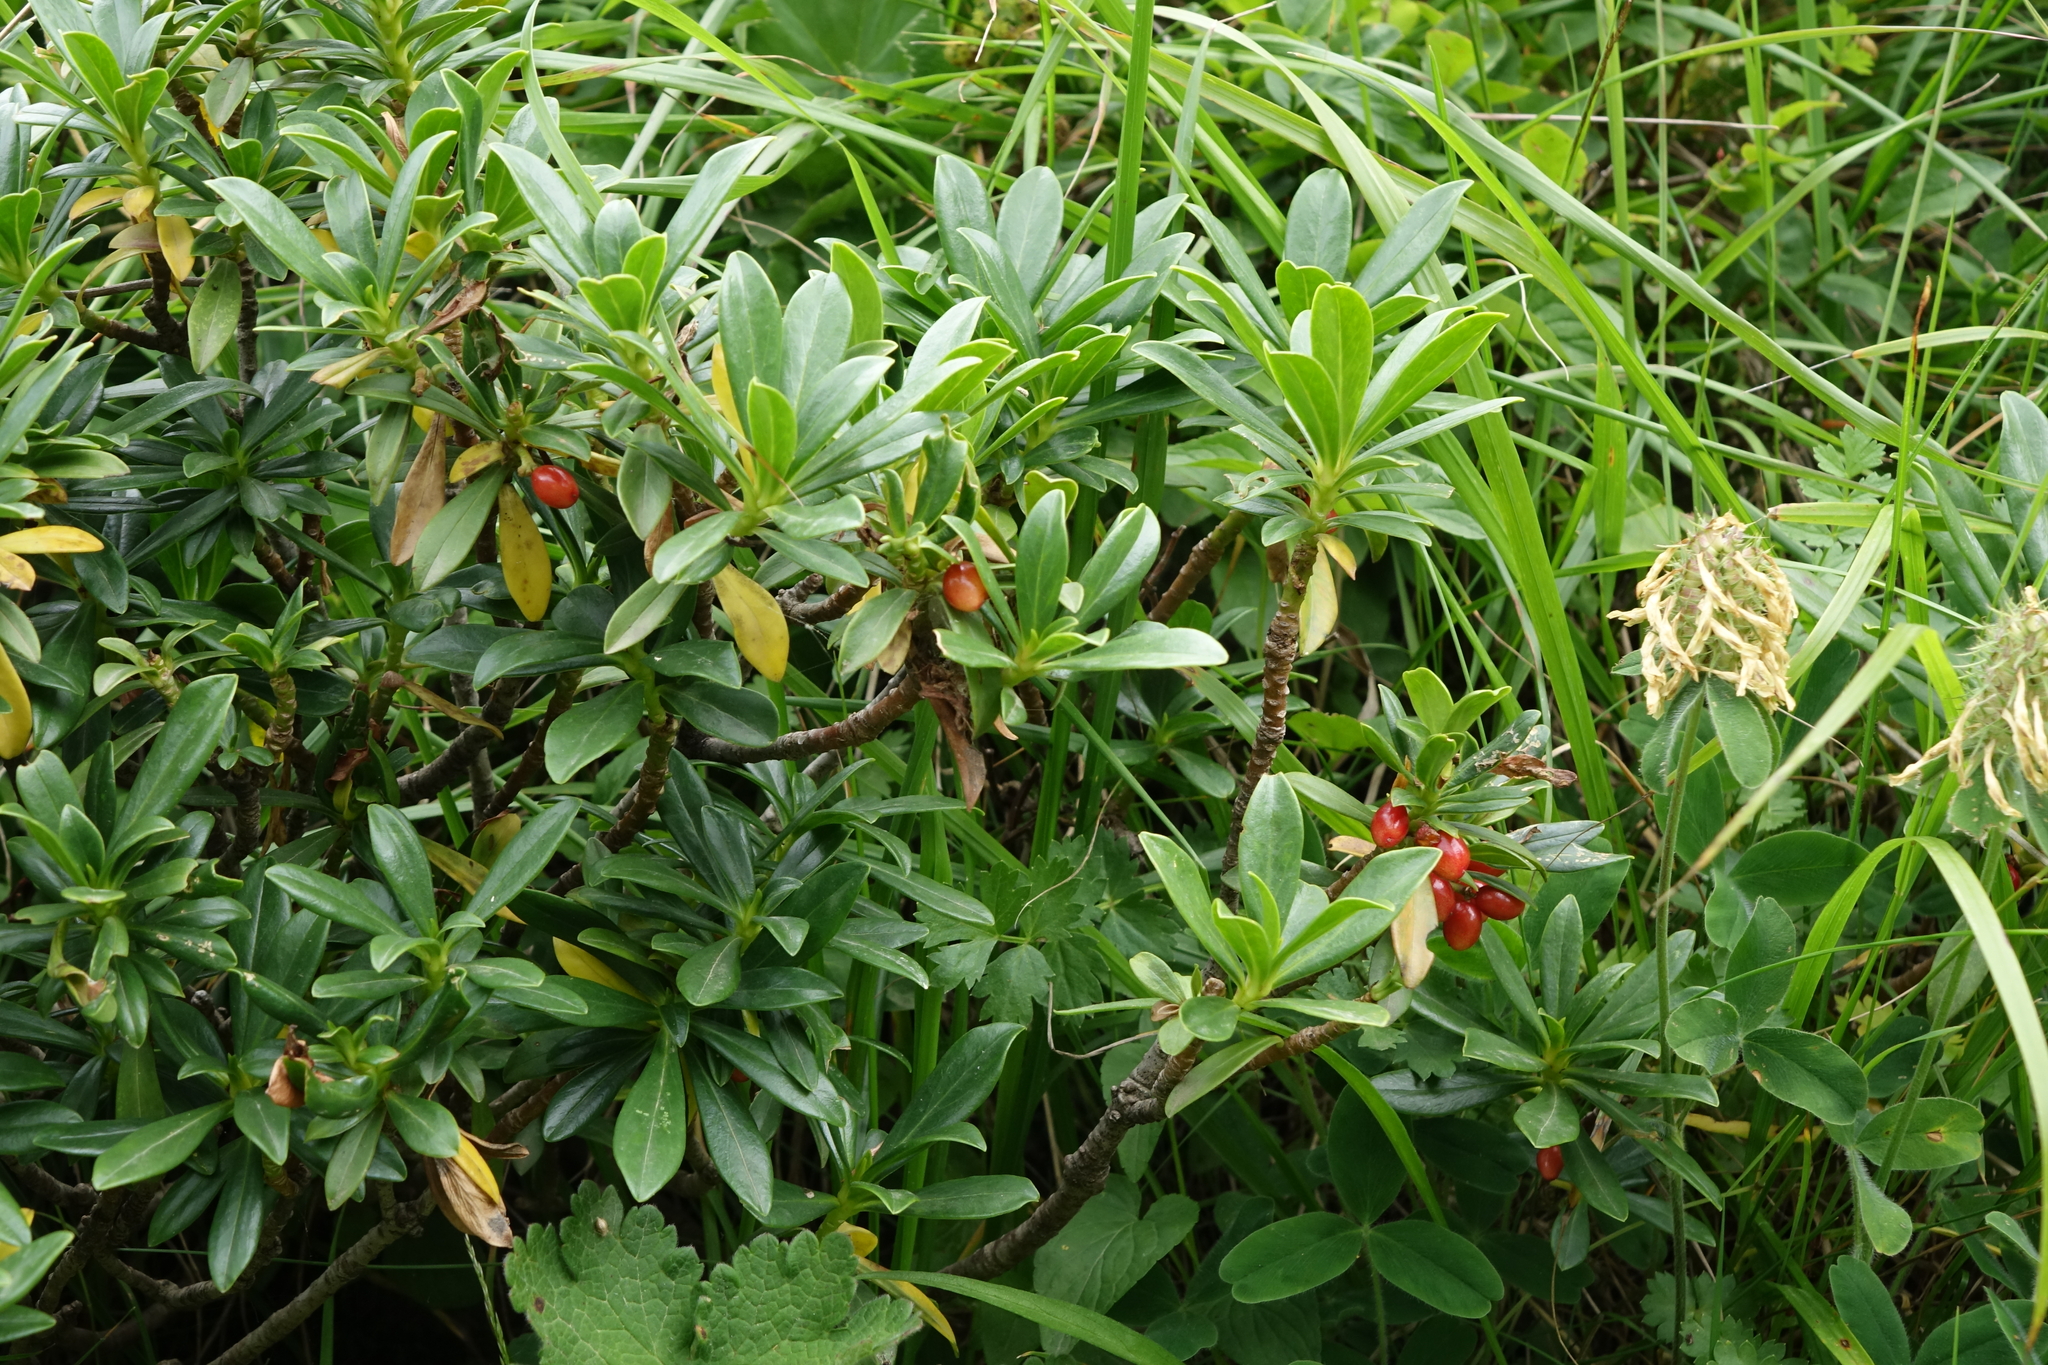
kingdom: Plantae
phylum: Tracheophyta
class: Magnoliopsida
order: Malvales
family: Thymelaeaceae
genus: Daphne
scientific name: Daphne glomerata
